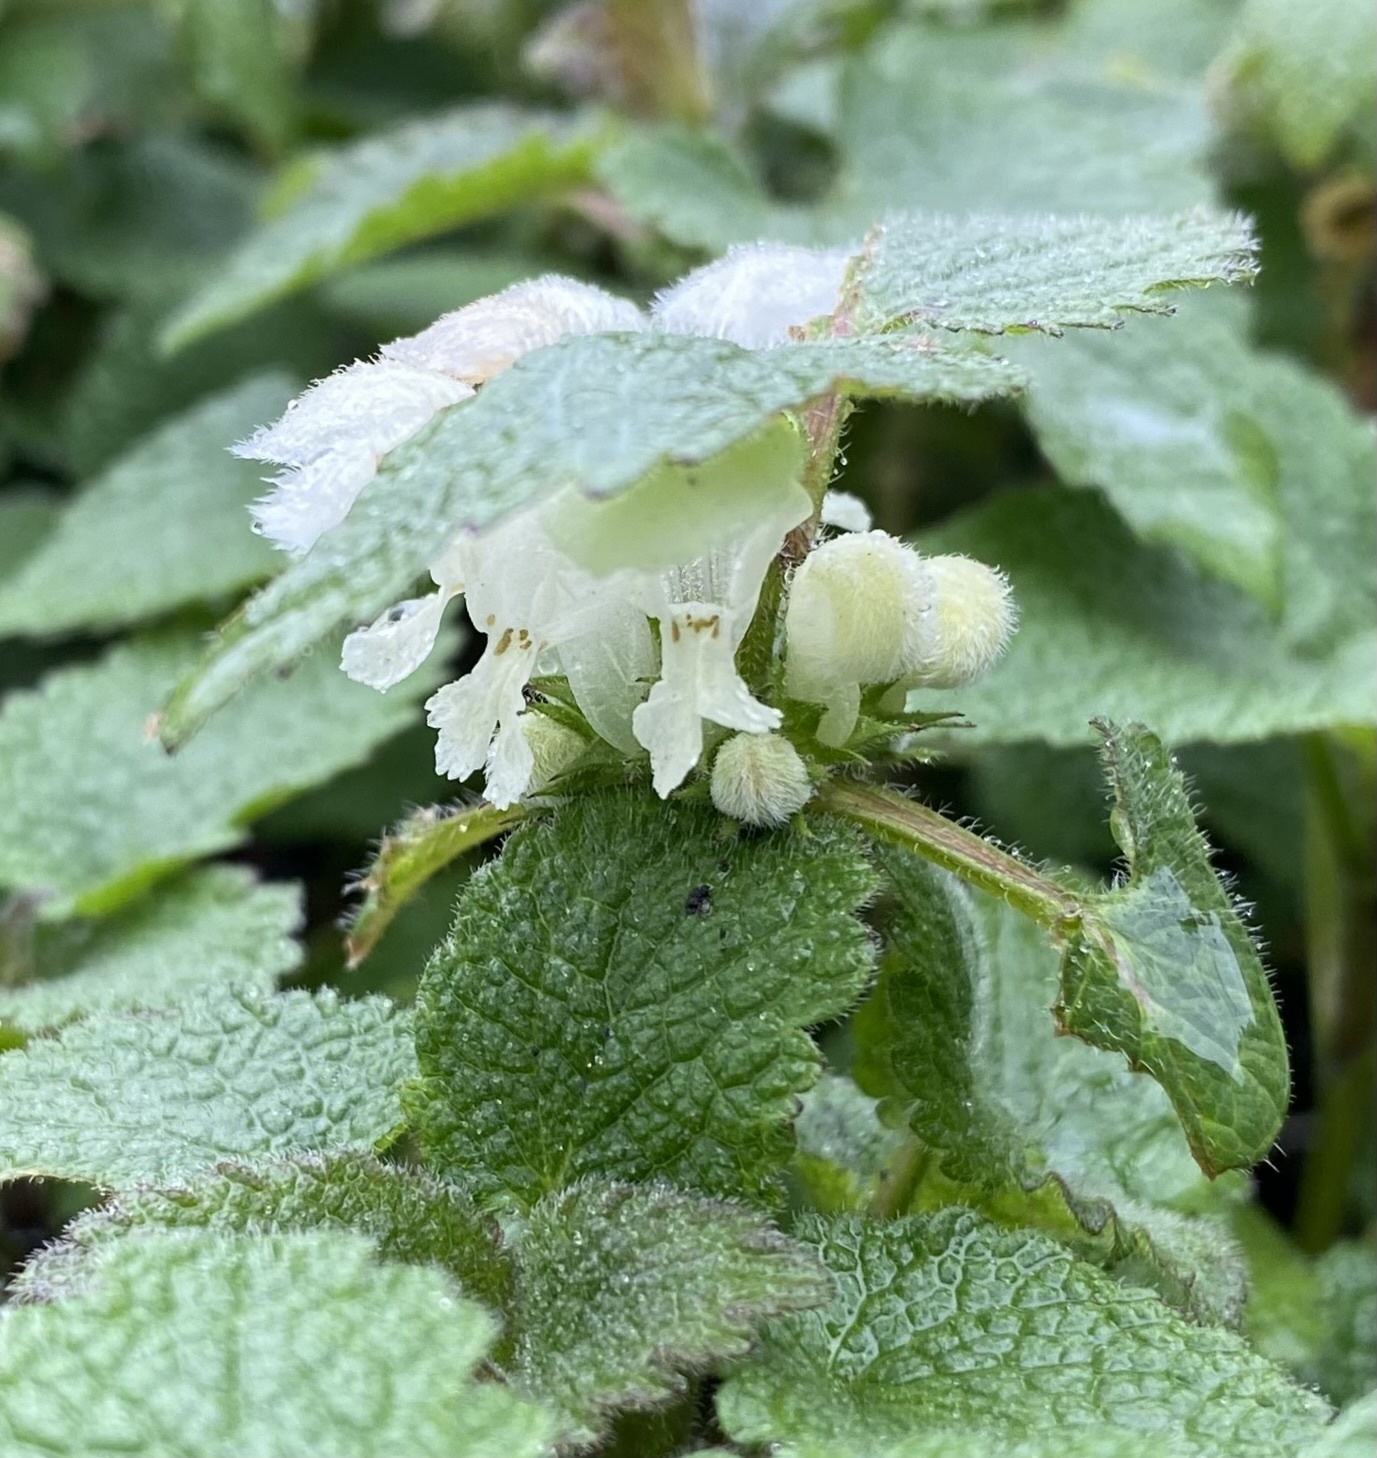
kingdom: Plantae
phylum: Tracheophyta
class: Magnoliopsida
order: Lamiales
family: Lamiaceae
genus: Lamium
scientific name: Lamium album
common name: White dead-nettle
